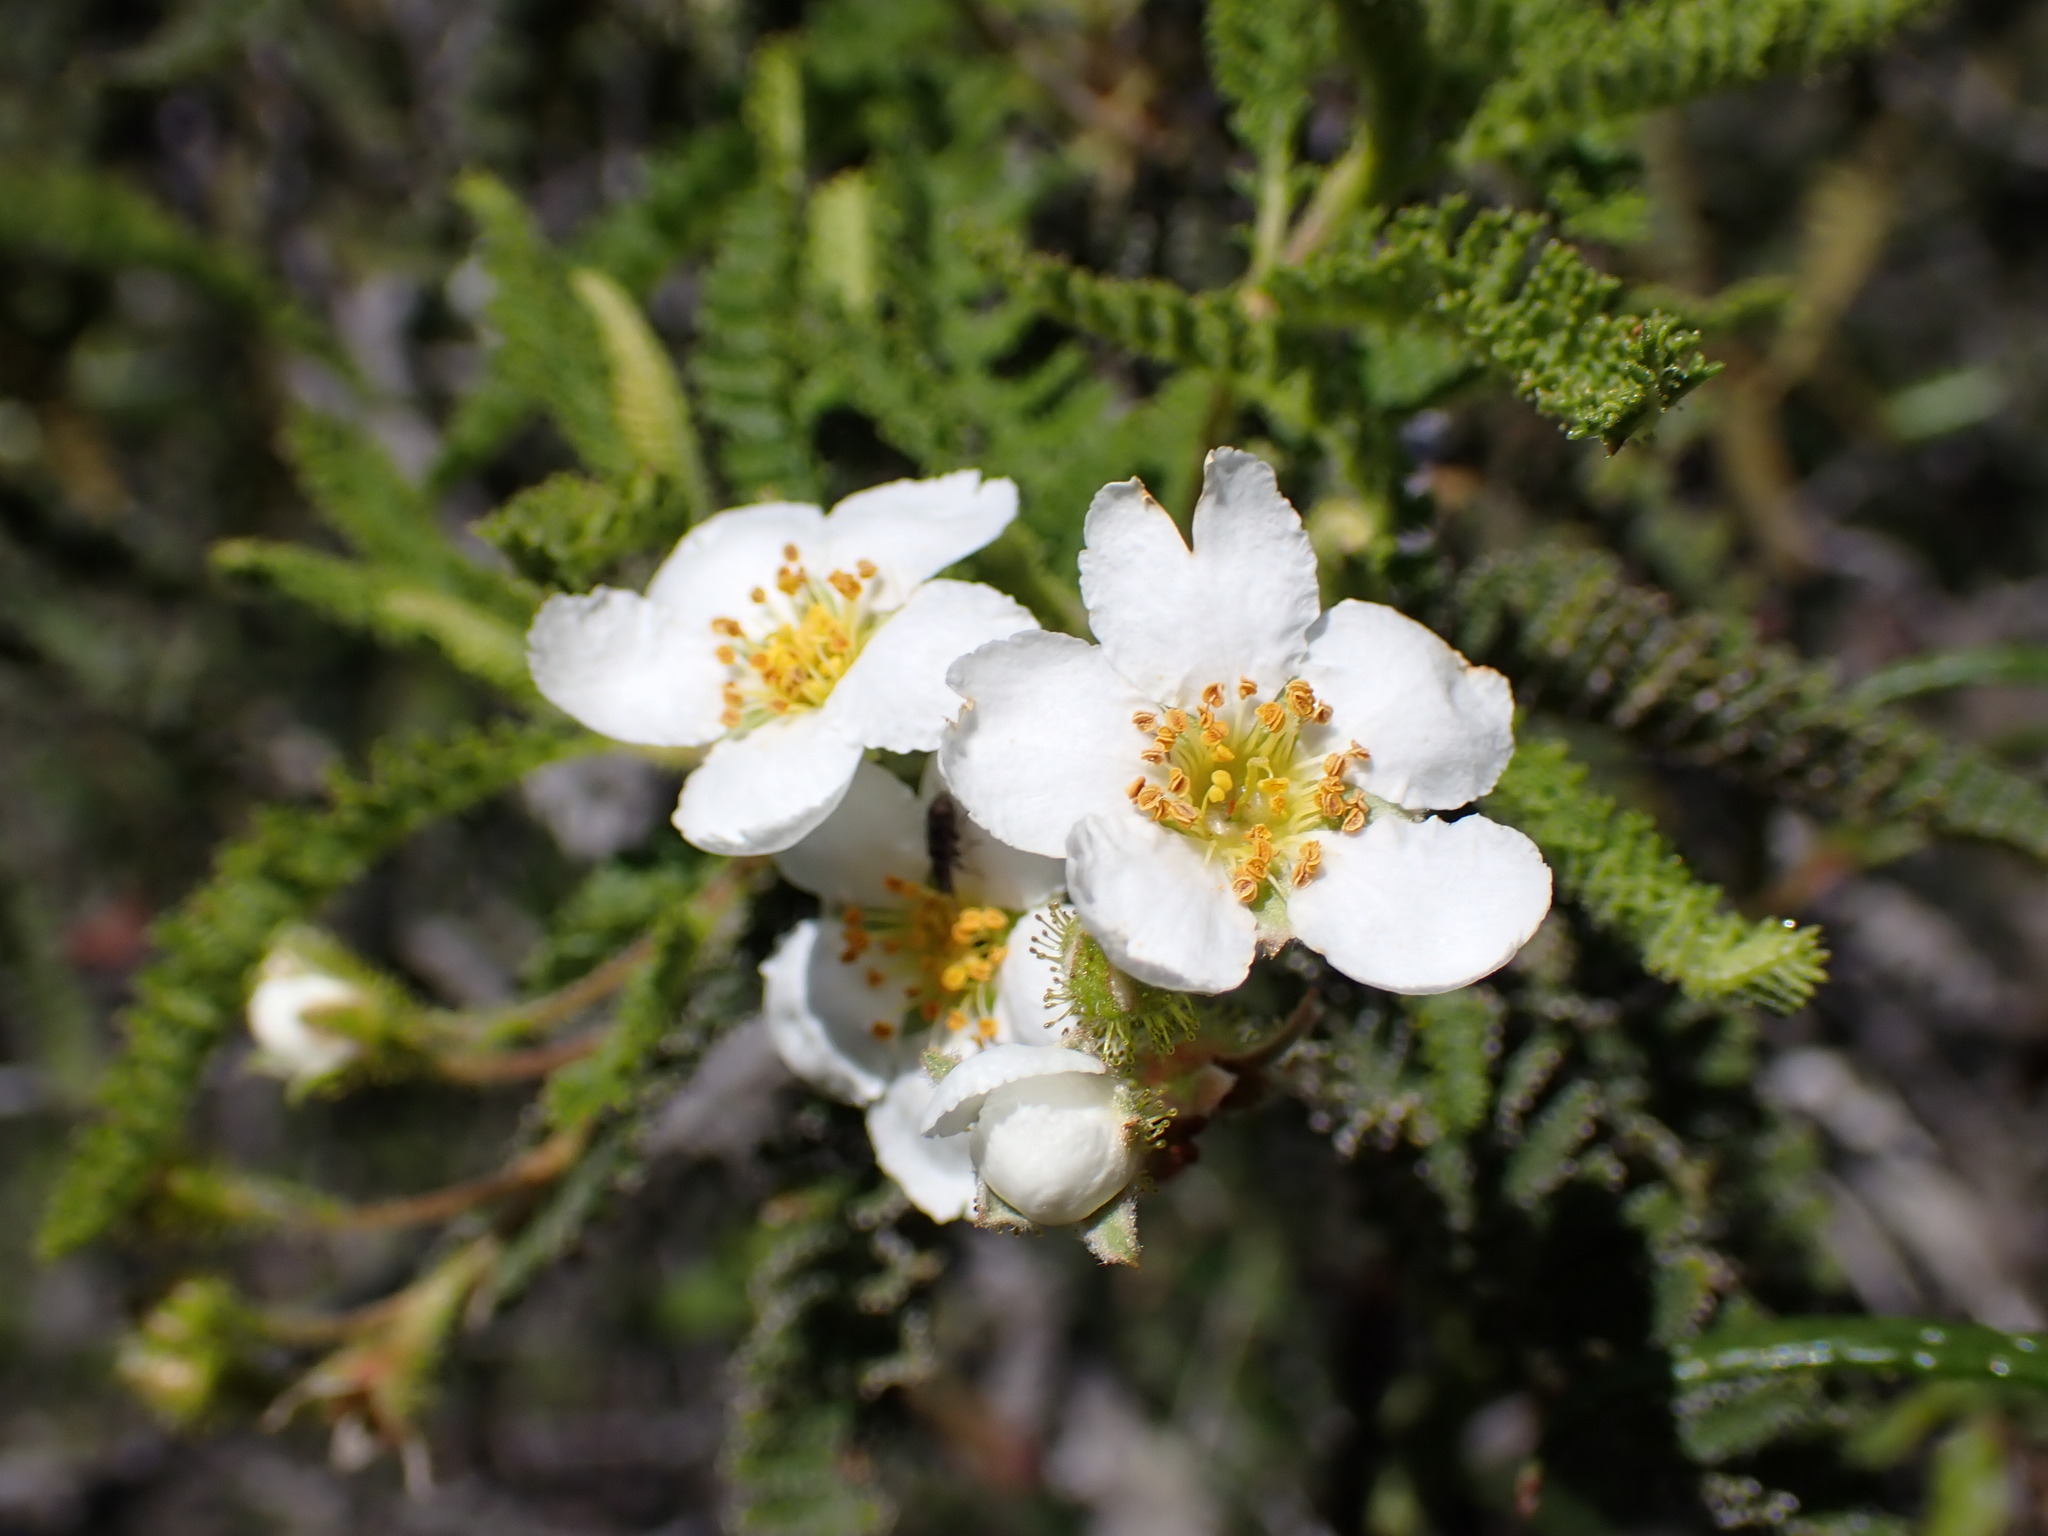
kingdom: Plantae
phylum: Tracheophyta
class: Magnoliopsida
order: Rosales
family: Rosaceae
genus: Chamaebatia
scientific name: Chamaebatia australis
